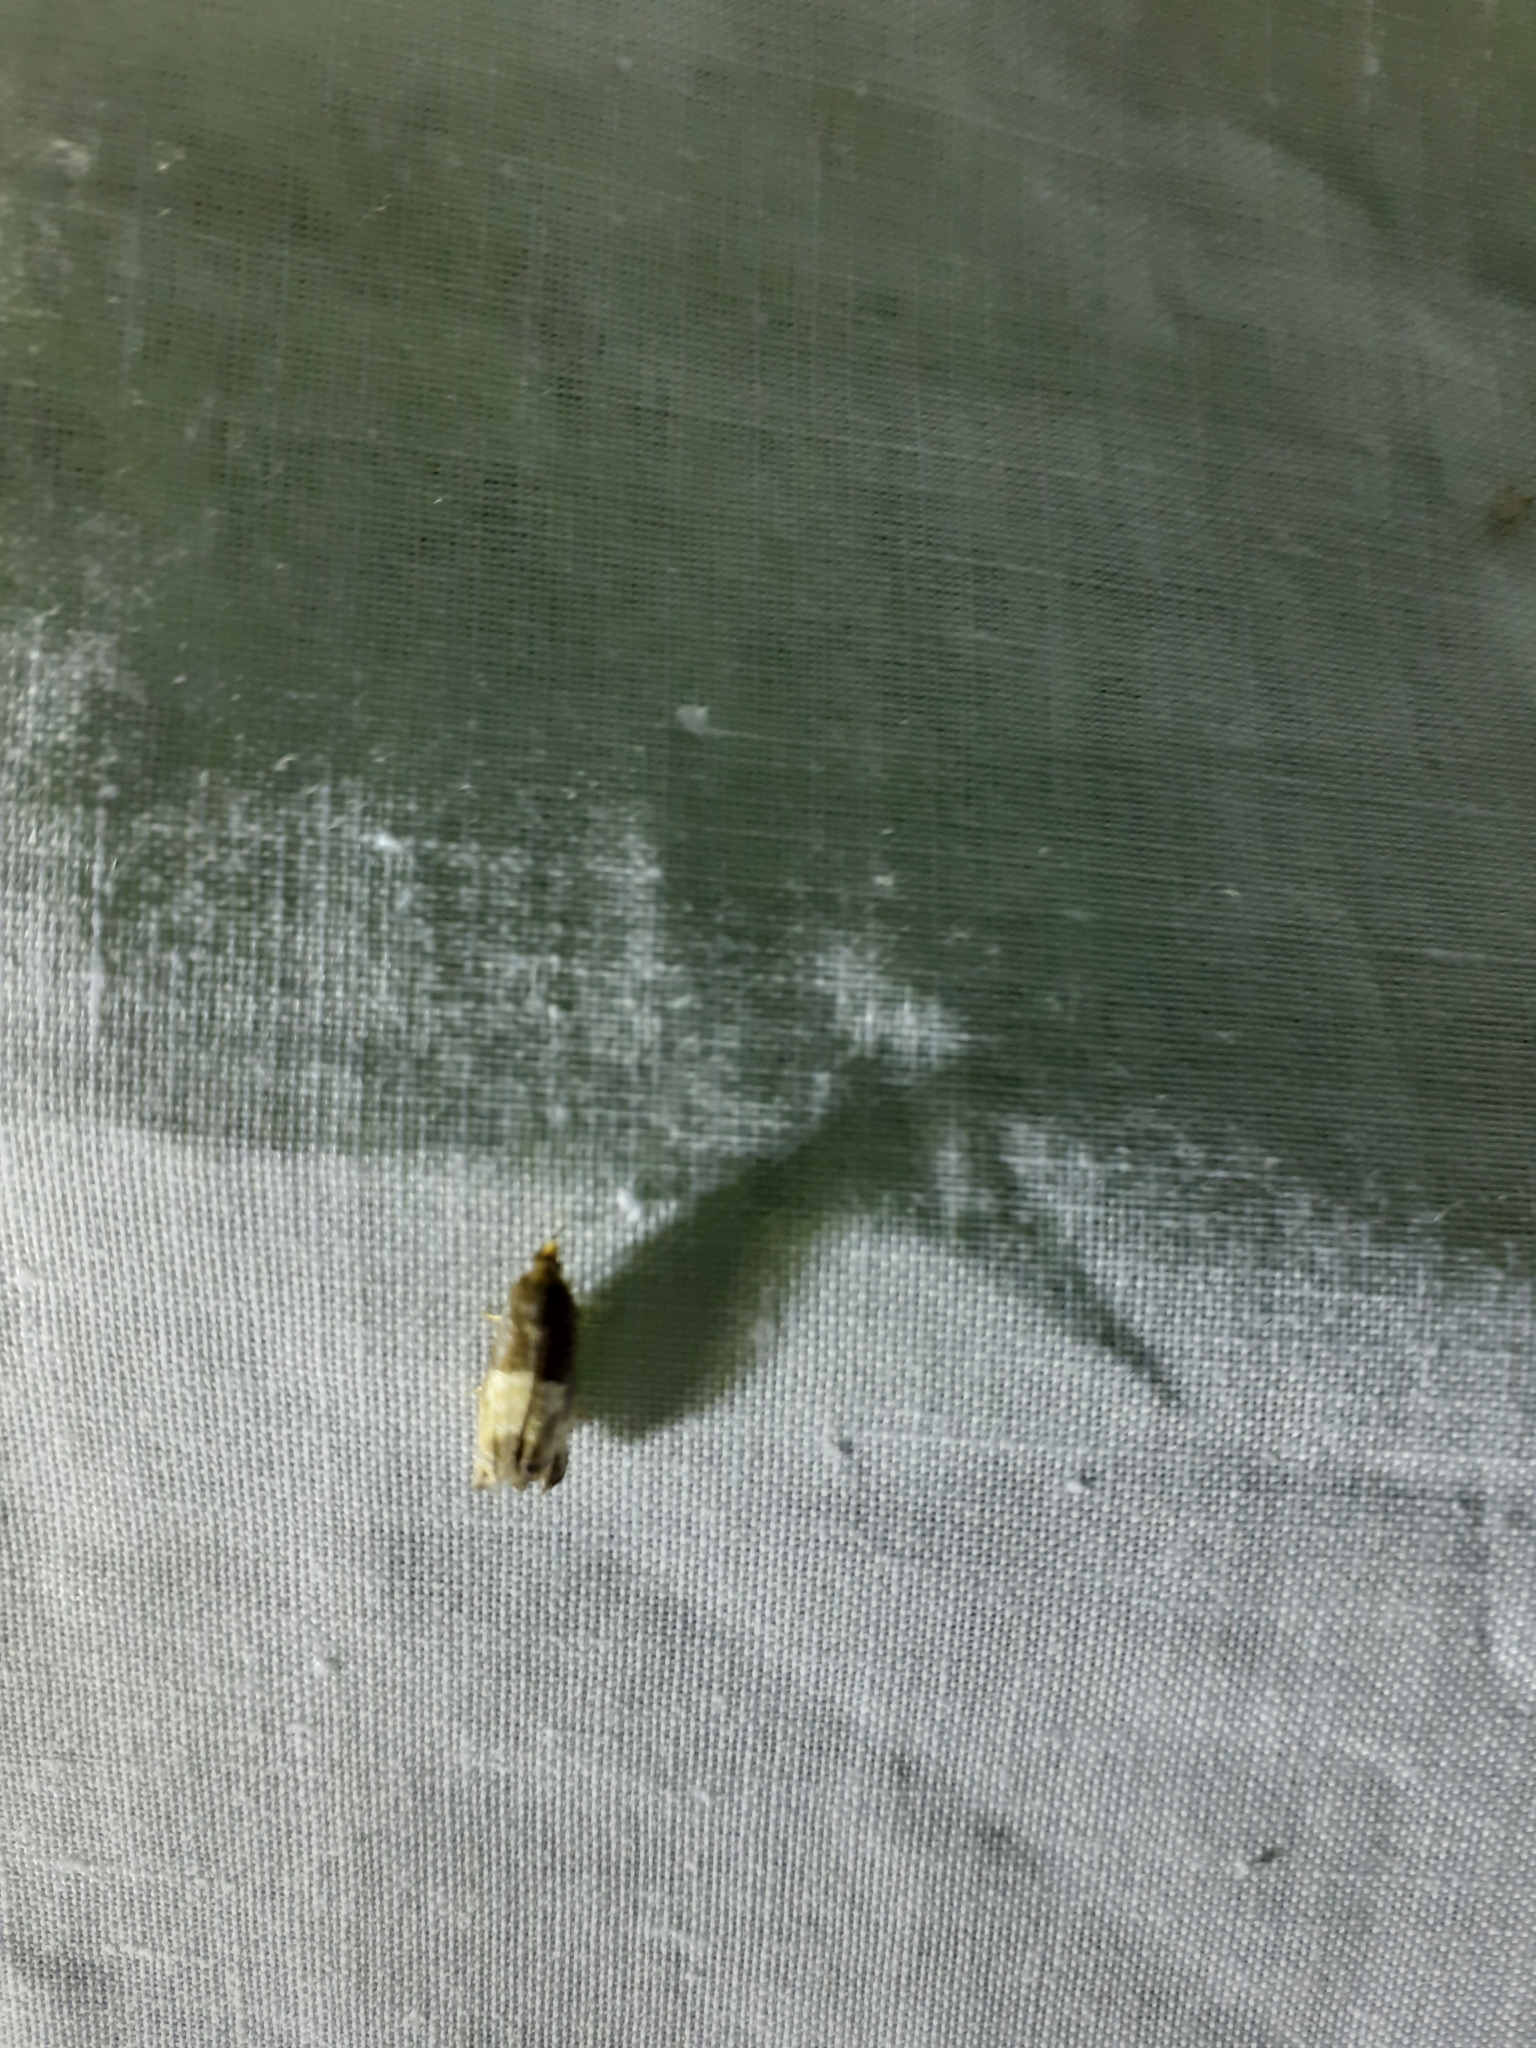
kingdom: Animalia
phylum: Arthropoda
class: Insecta
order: Lepidoptera
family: Tortricidae
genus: Notocelia
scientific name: Notocelia cynosbatella
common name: Yellow-faced bell moth
